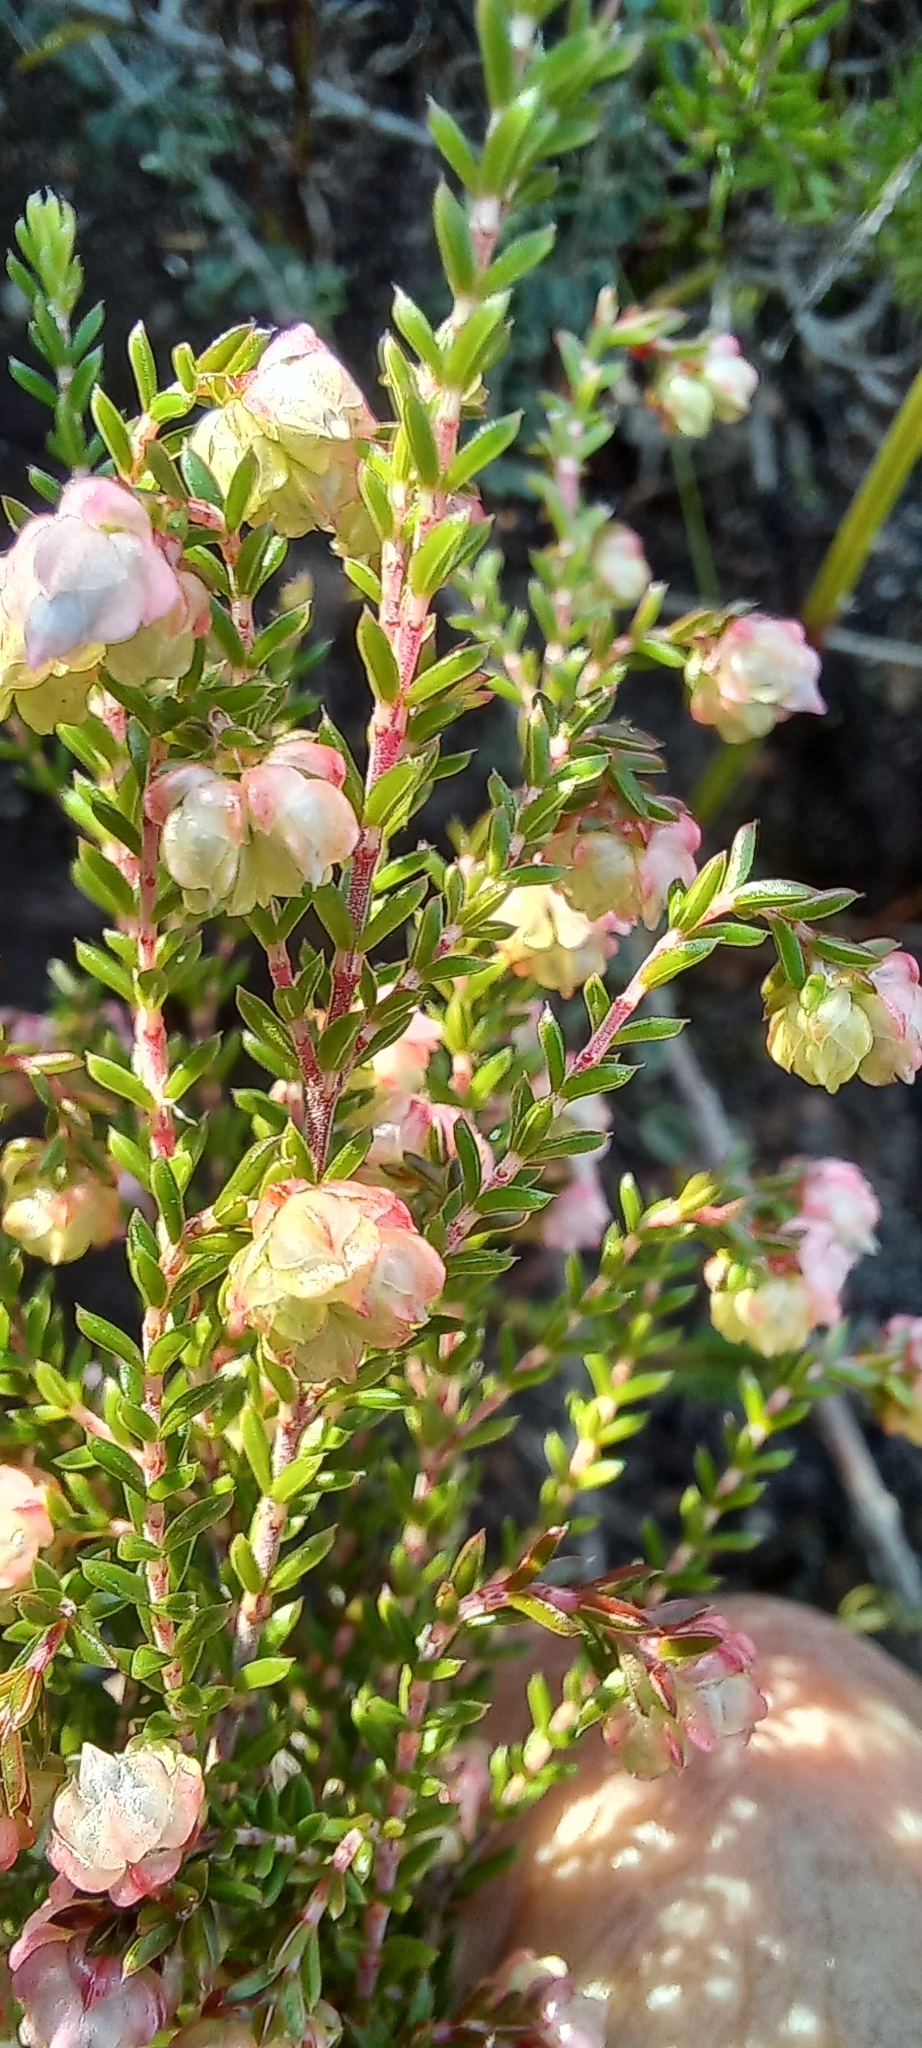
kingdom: Plantae
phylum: Tracheophyta
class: Magnoliopsida
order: Ericales
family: Ericaceae
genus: Erica
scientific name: Erica spumosa
